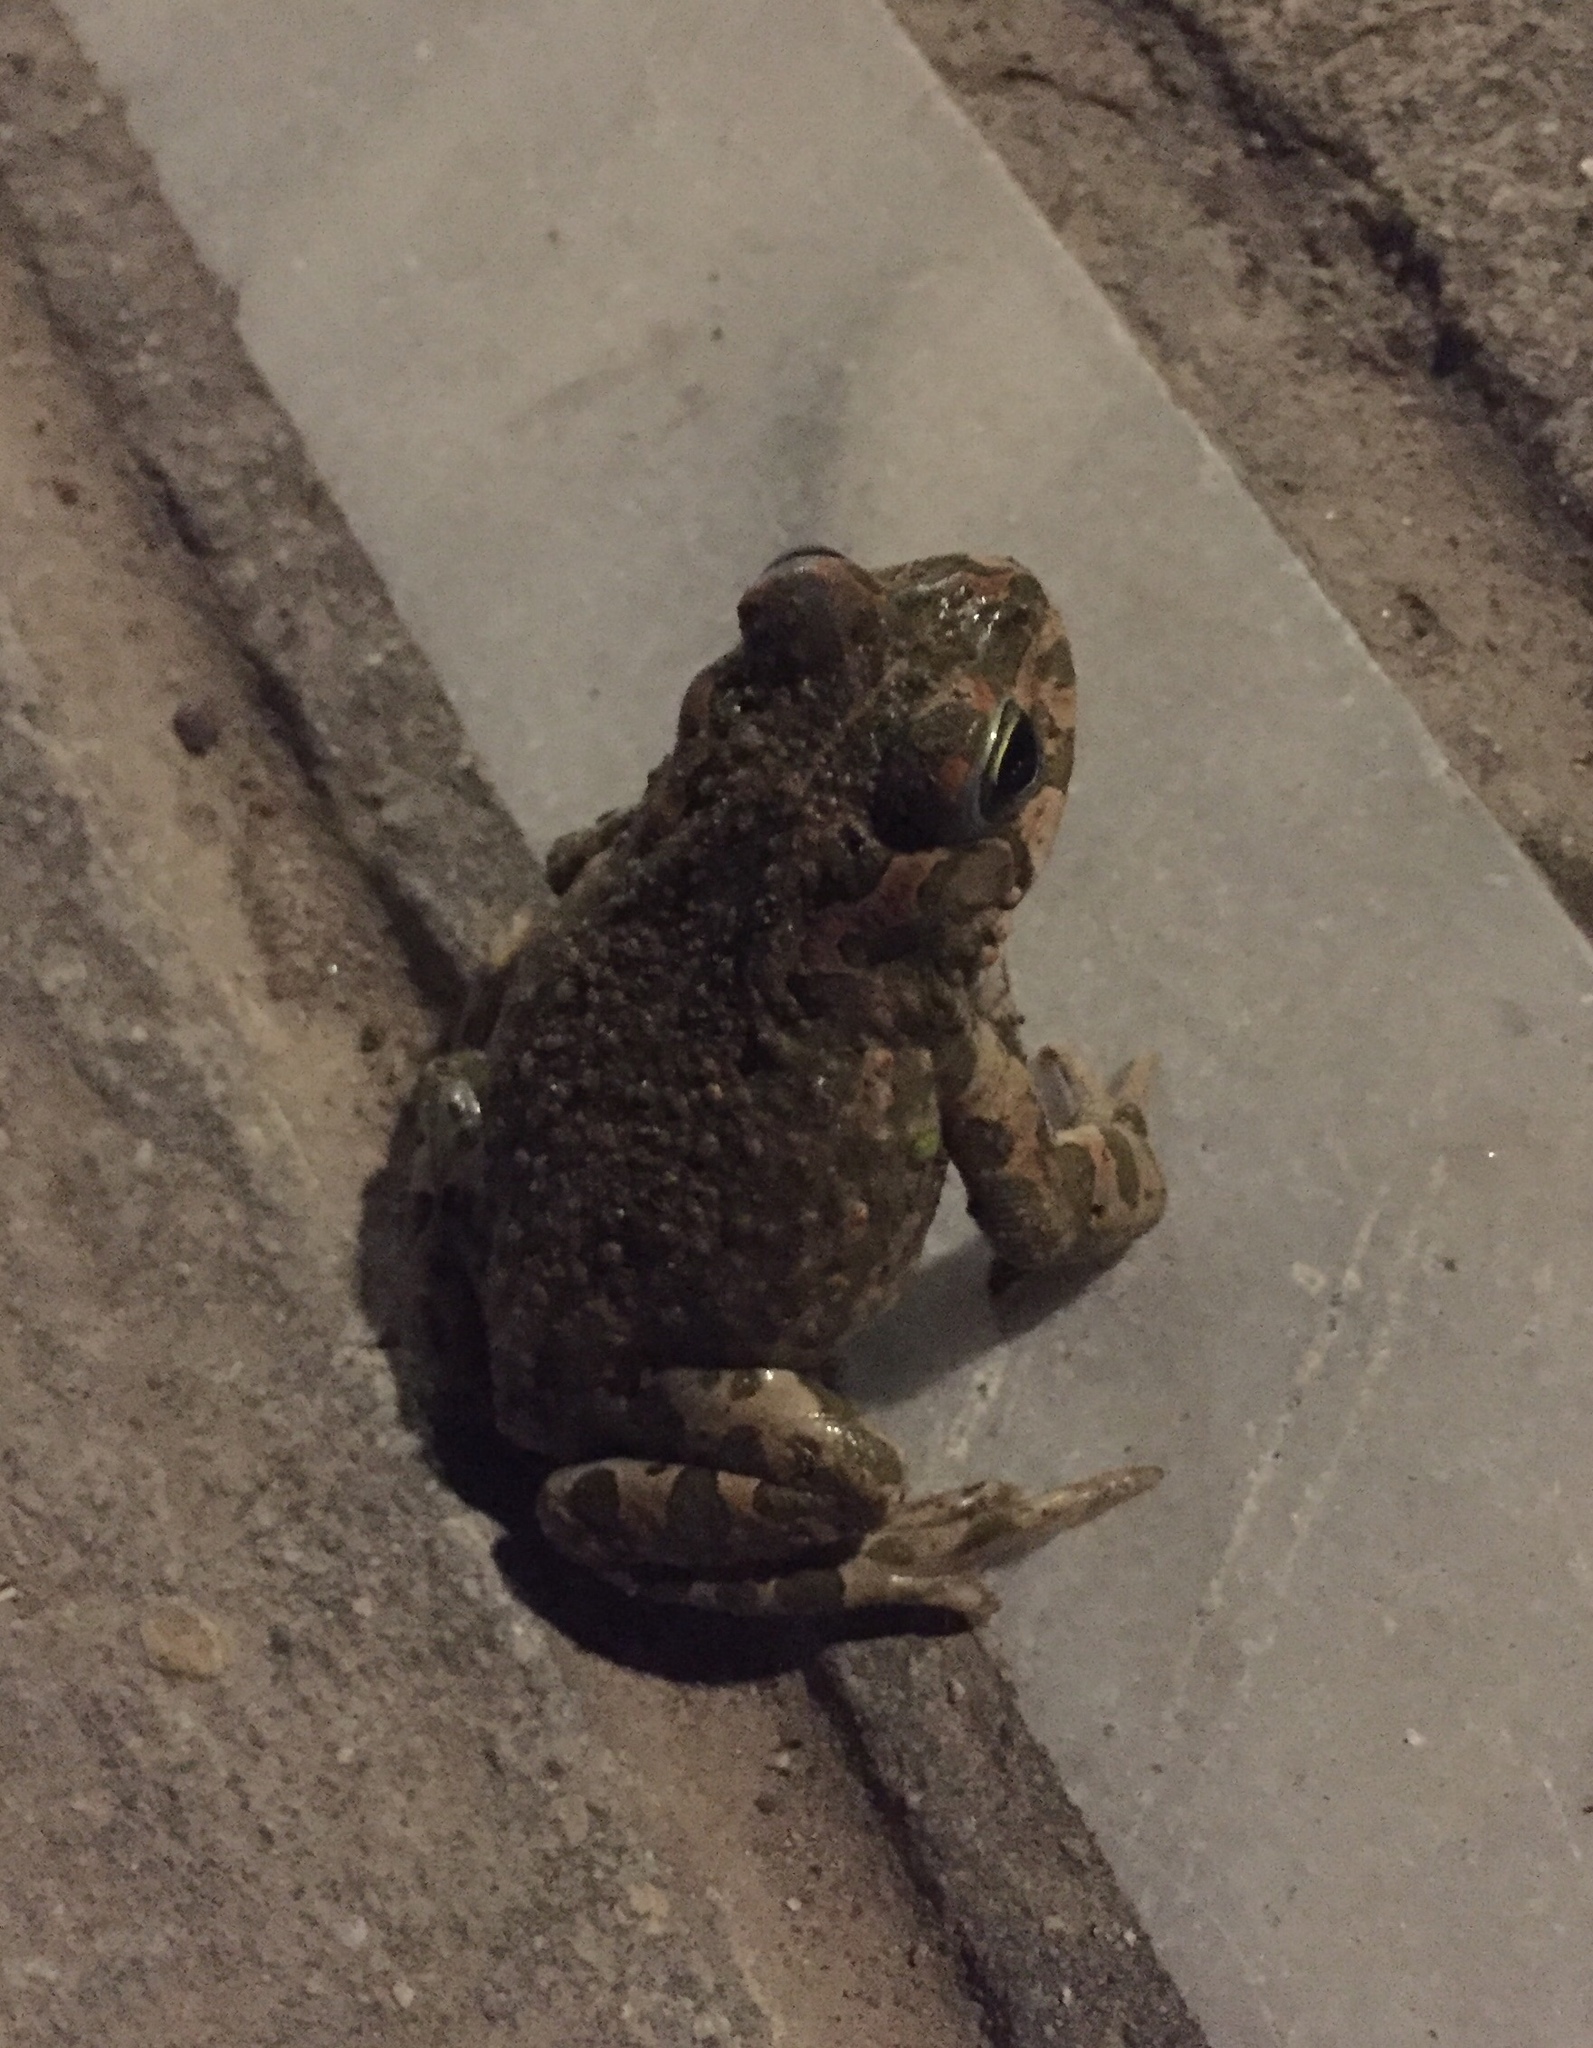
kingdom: Animalia
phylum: Chordata
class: Amphibia
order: Anura
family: Bufonidae
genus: Bufotes
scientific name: Bufotes viridis
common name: European green toad
